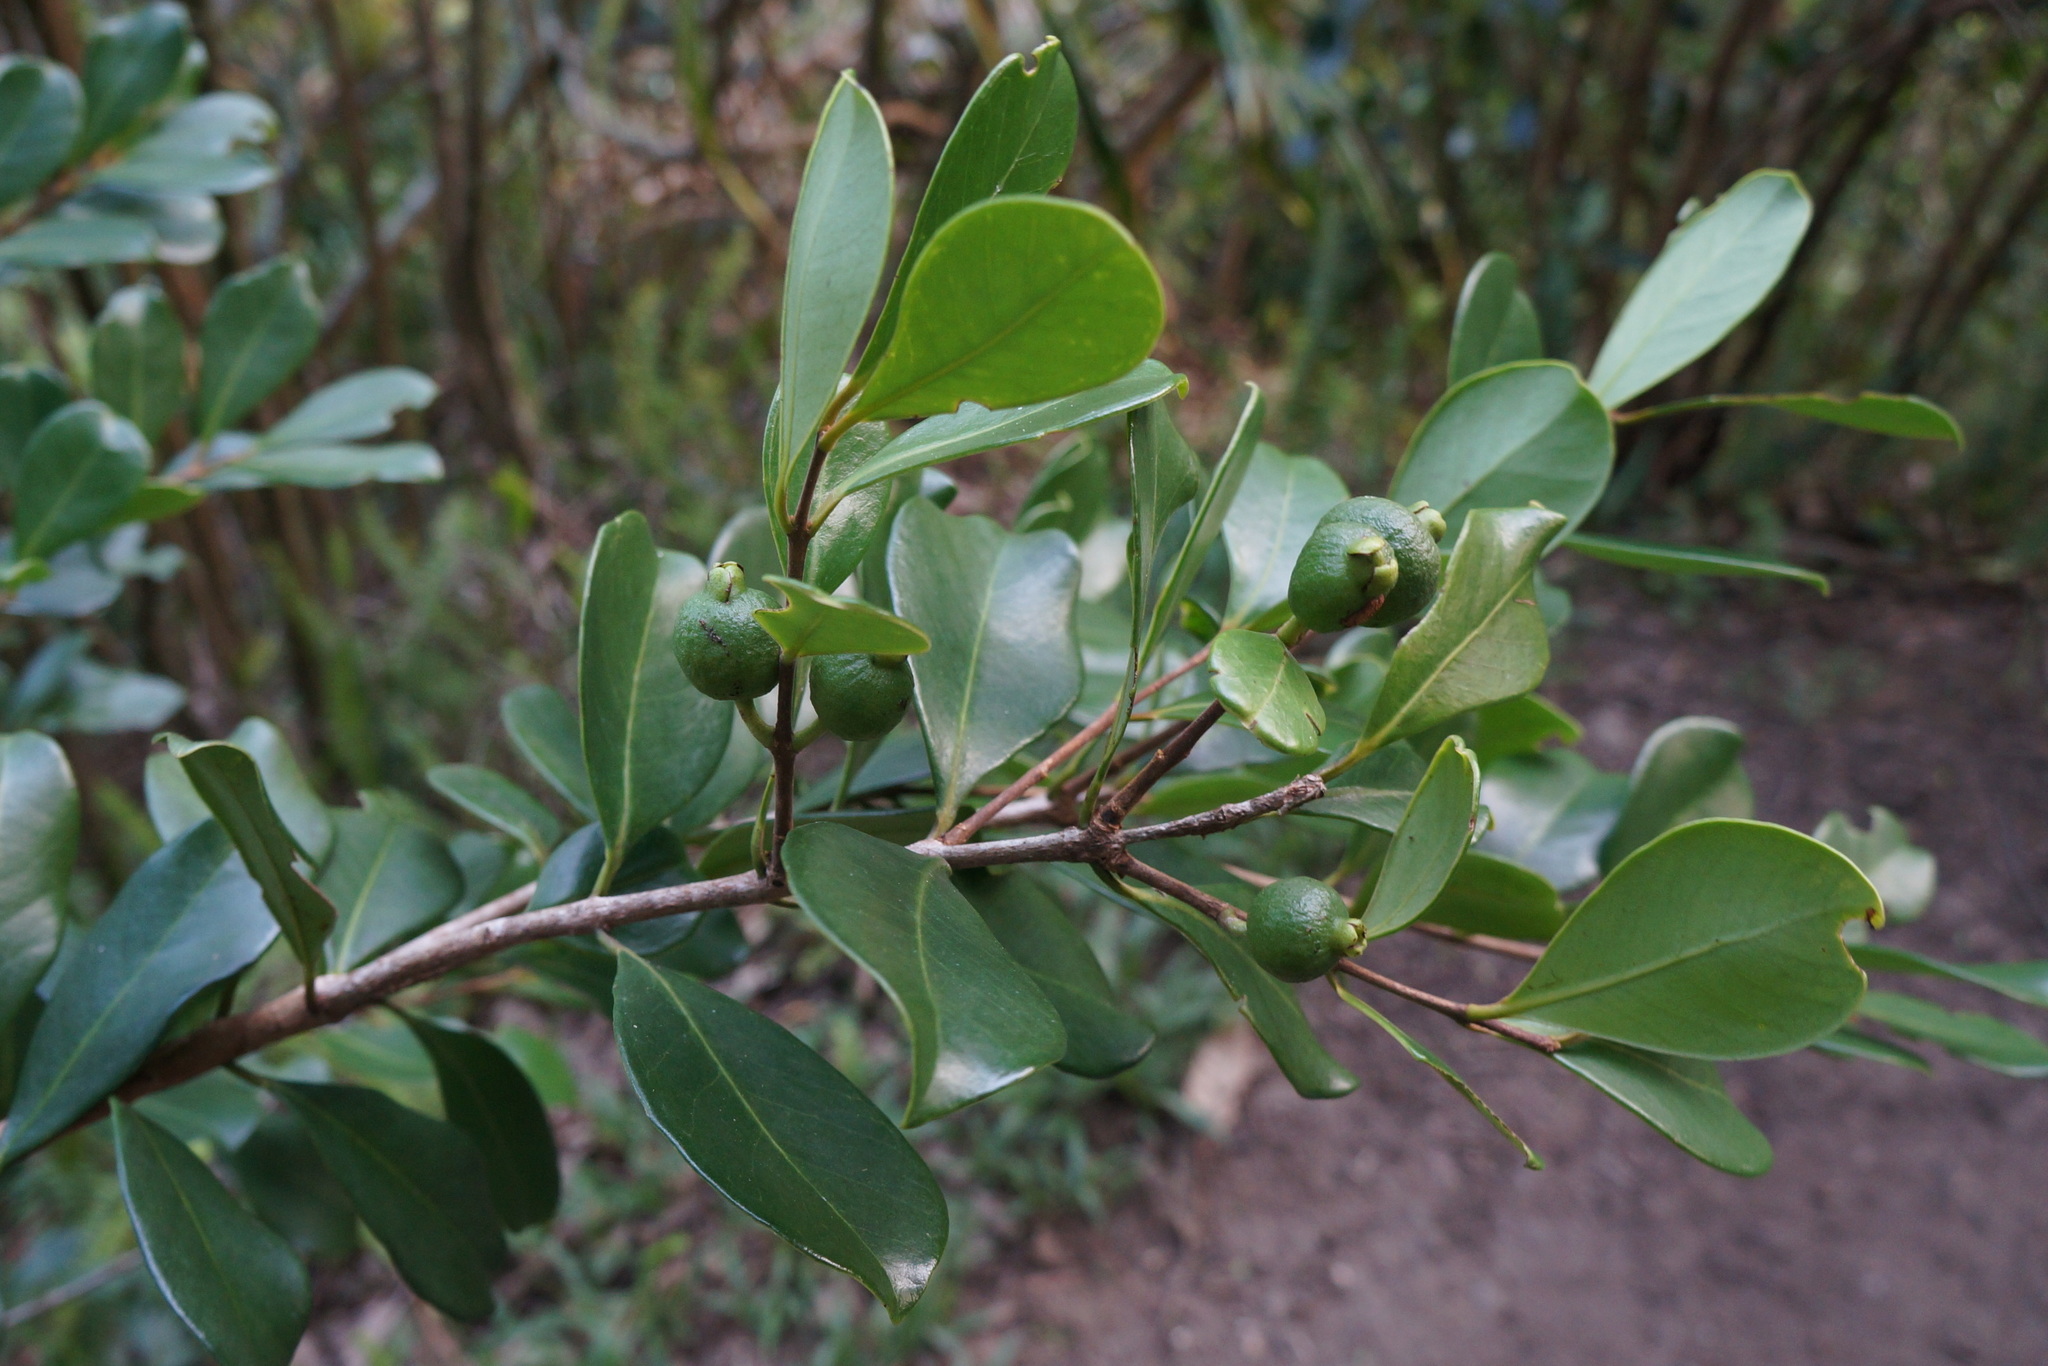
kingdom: Plantae
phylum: Tracheophyta
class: Magnoliopsida
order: Myrtales
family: Myrtaceae
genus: Psidium
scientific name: Psidium cattleianum
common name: Strawberry guava
